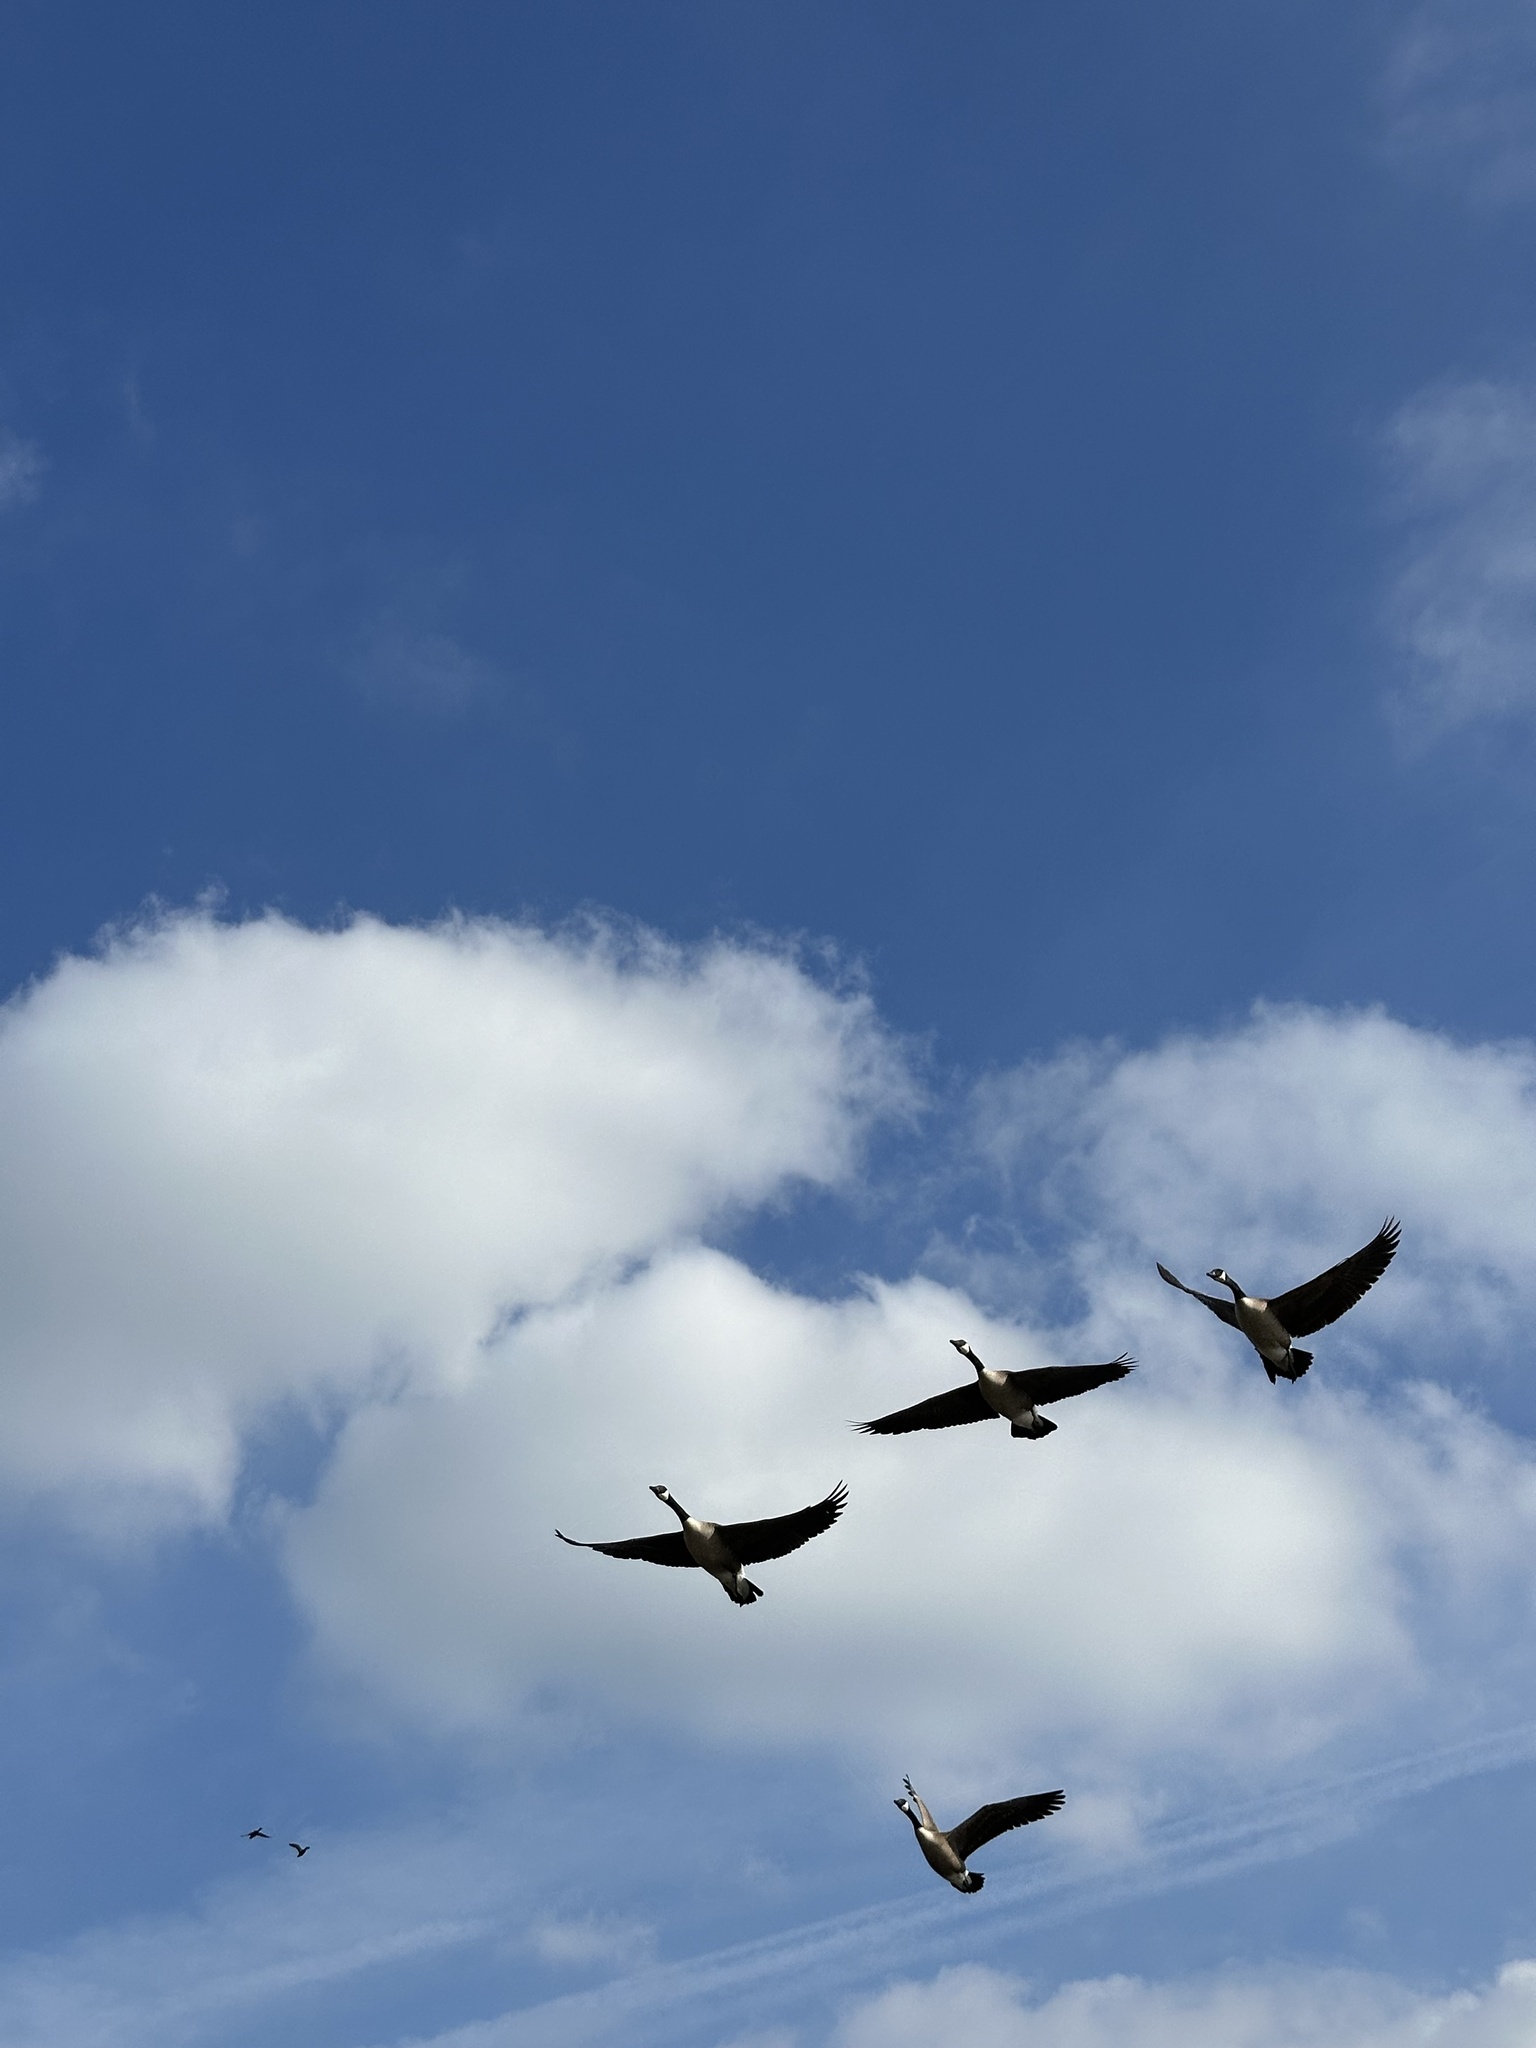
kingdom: Animalia
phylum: Chordata
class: Aves
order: Anseriformes
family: Anatidae
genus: Branta
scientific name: Branta canadensis
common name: Canada goose
